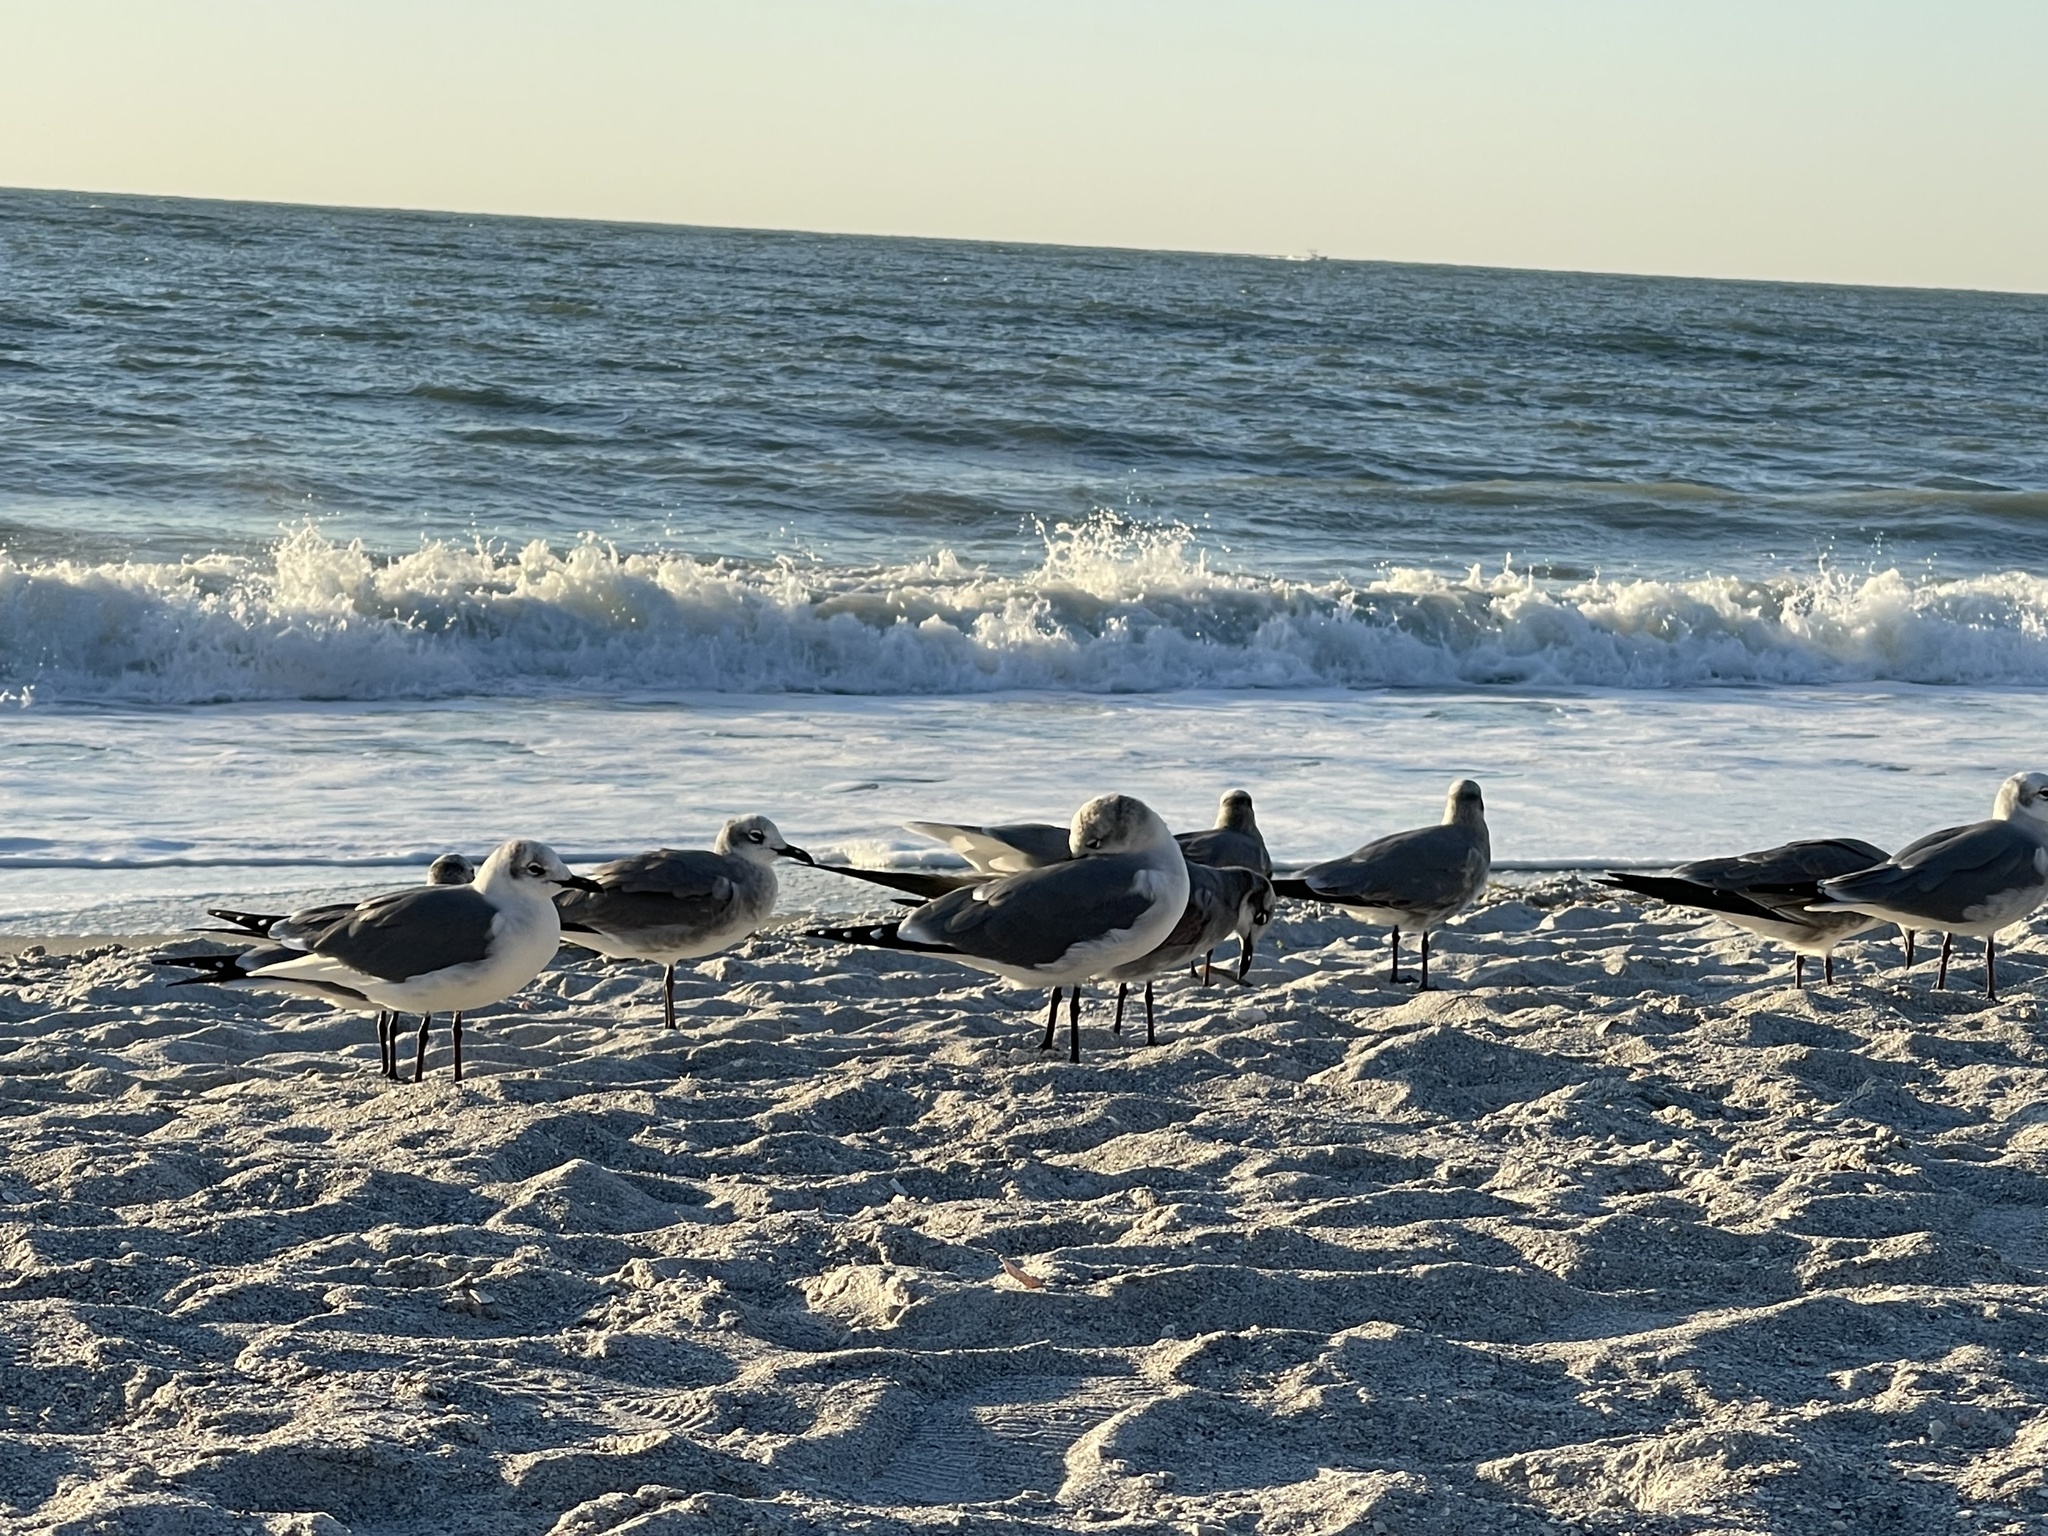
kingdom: Animalia
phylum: Chordata
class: Aves
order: Charadriiformes
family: Laridae
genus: Leucophaeus
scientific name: Leucophaeus atricilla
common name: Laughing gull
